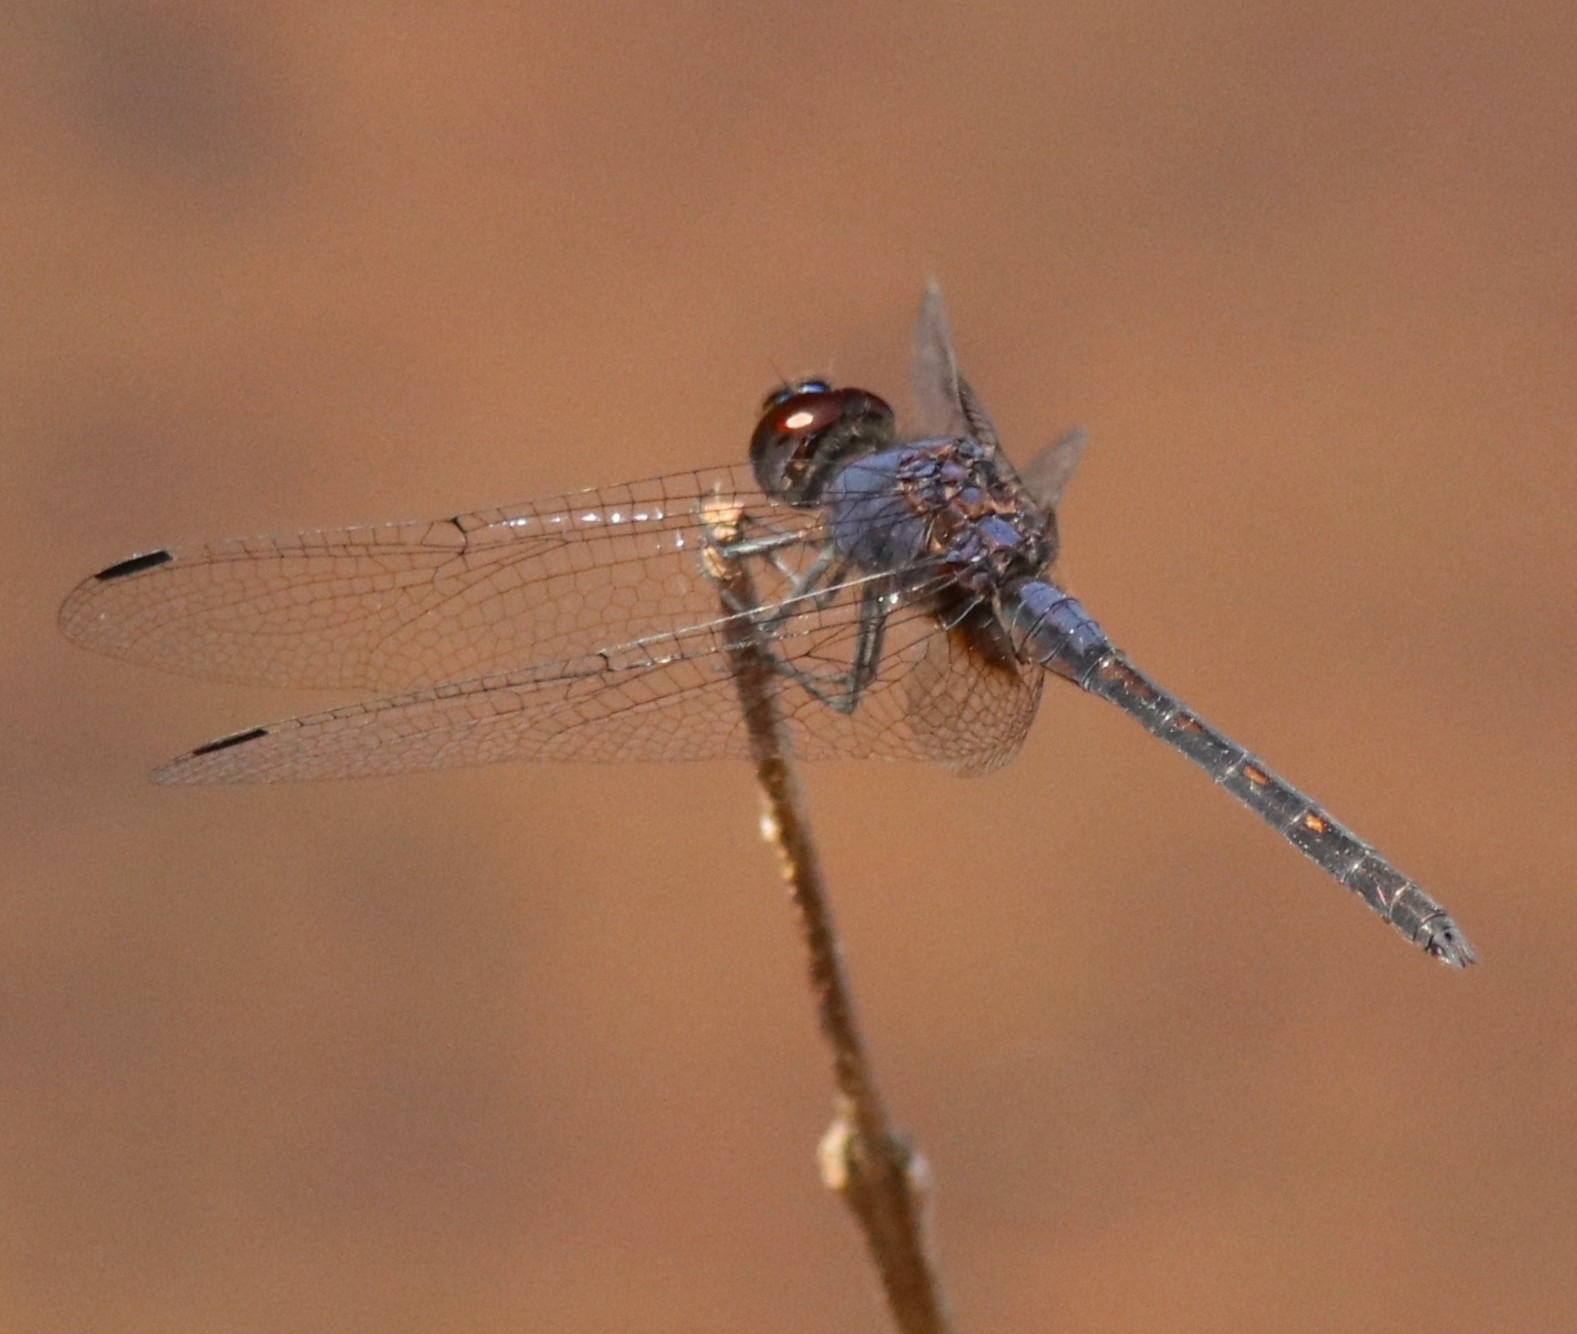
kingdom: Animalia
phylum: Arthropoda
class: Insecta
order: Odonata
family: Libellulidae
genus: Trithemis
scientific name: Trithemis festiva
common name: Indigo dropwing
